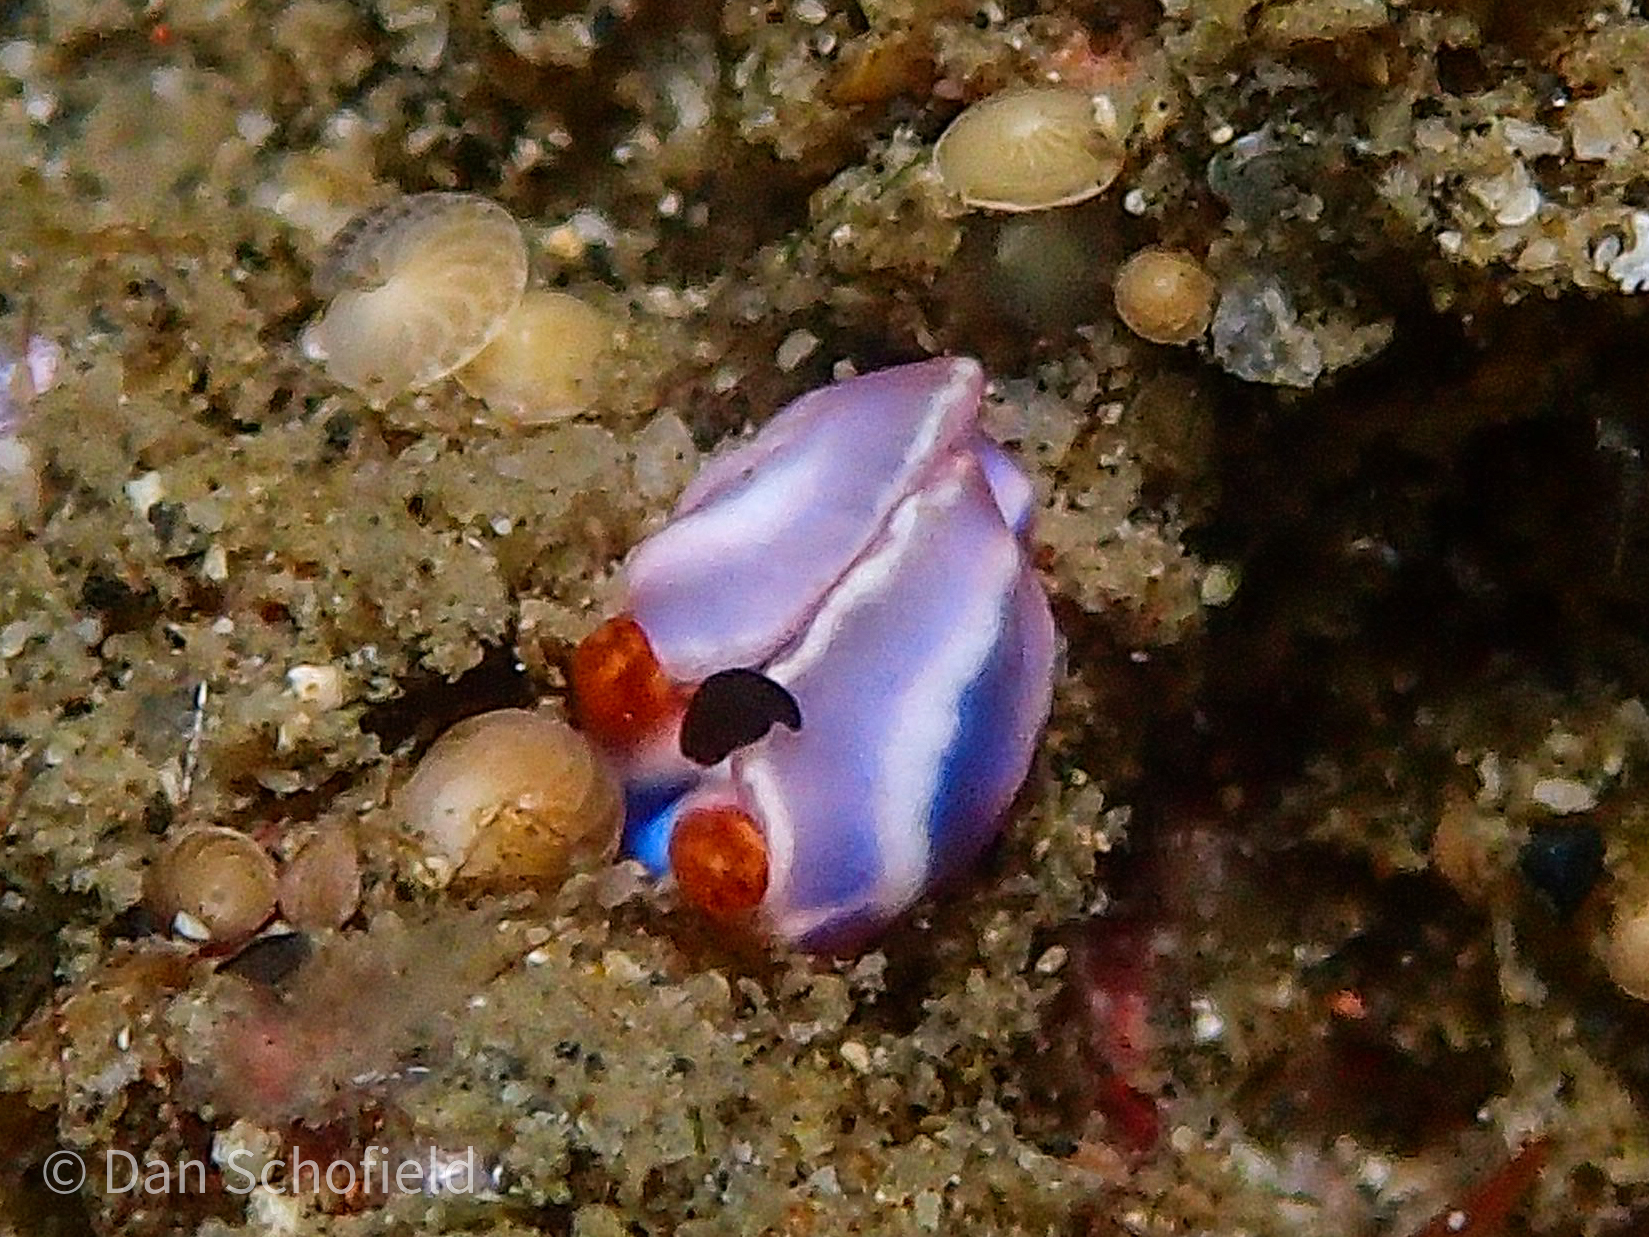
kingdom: Animalia
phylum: Mollusca
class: Gastropoda
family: Plakobranchidae
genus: Thuridilla
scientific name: Thuridilla albopustulosa
